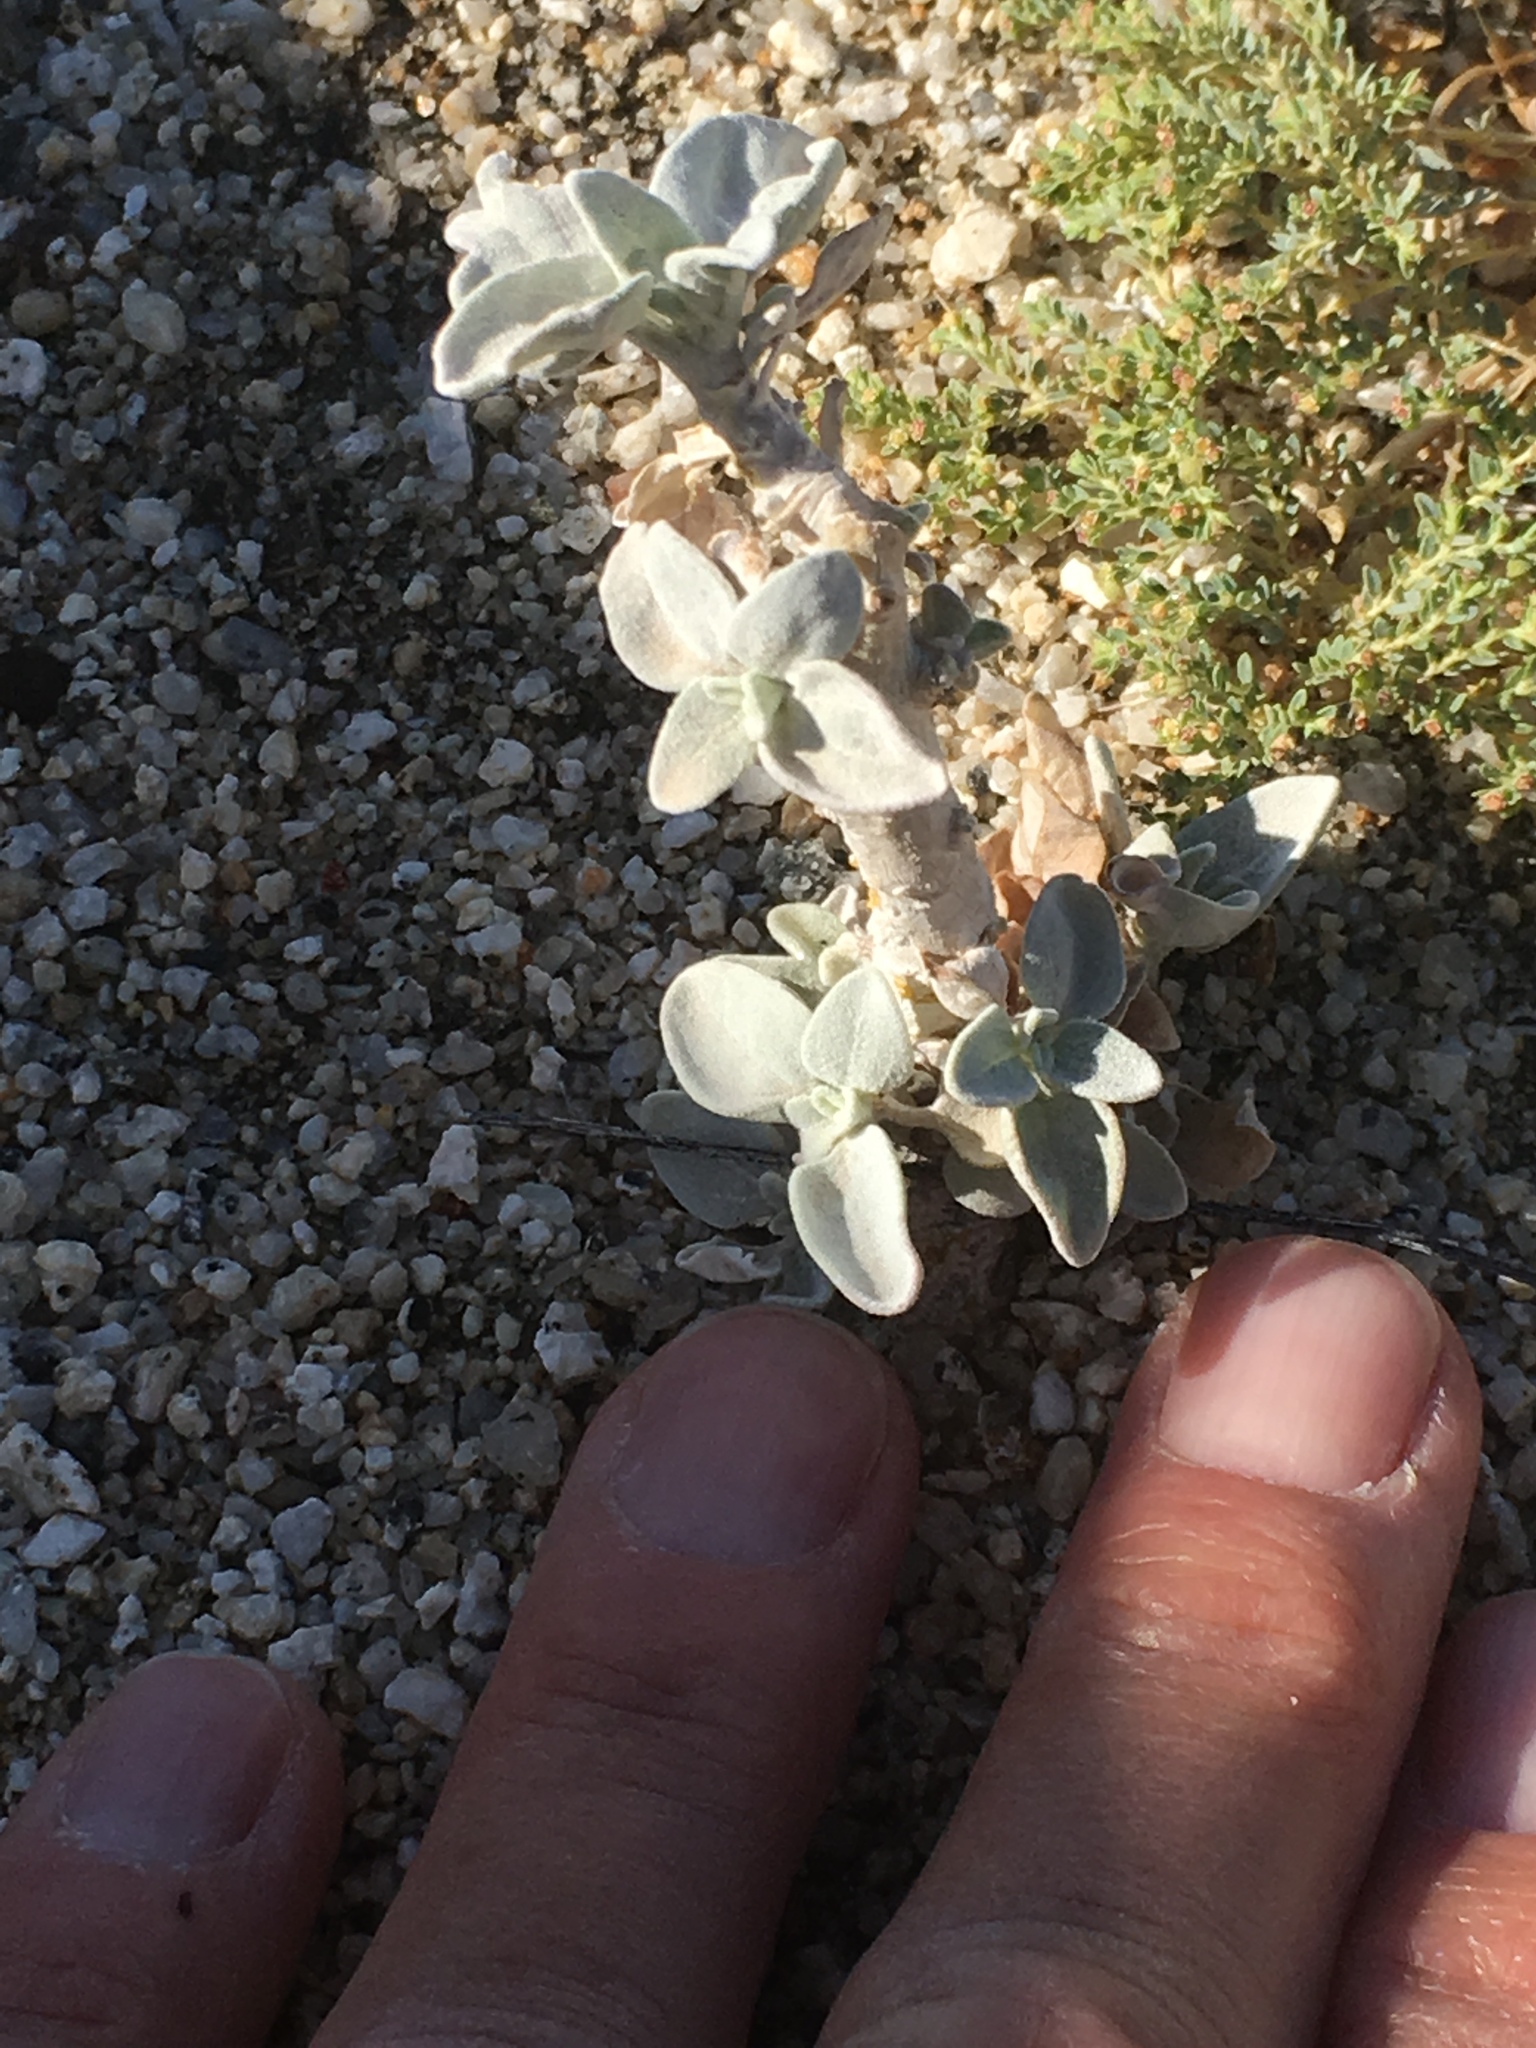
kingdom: Plantae
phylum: Tracheophyta
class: Magnoliopsida
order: Asterales
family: Asteraceae
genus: Encelia
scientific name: Encelia farinosa
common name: Brittlebush
